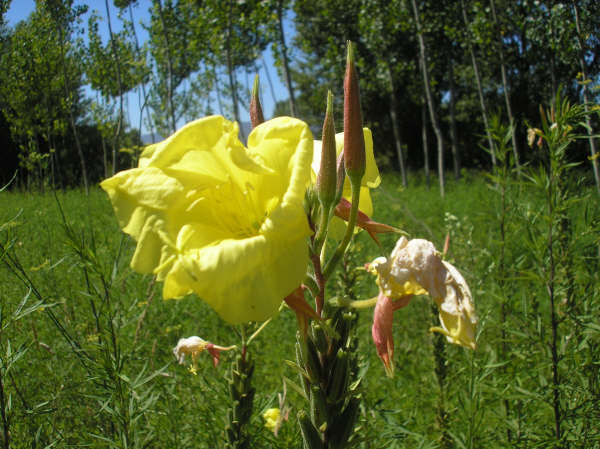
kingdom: Plantae
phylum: Tracheophyta
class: Magnoliopsida
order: Myrtales
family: Onagraceae
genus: Oenothera
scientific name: Oenothera glazioviana
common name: Large-flowered evening-primrose
